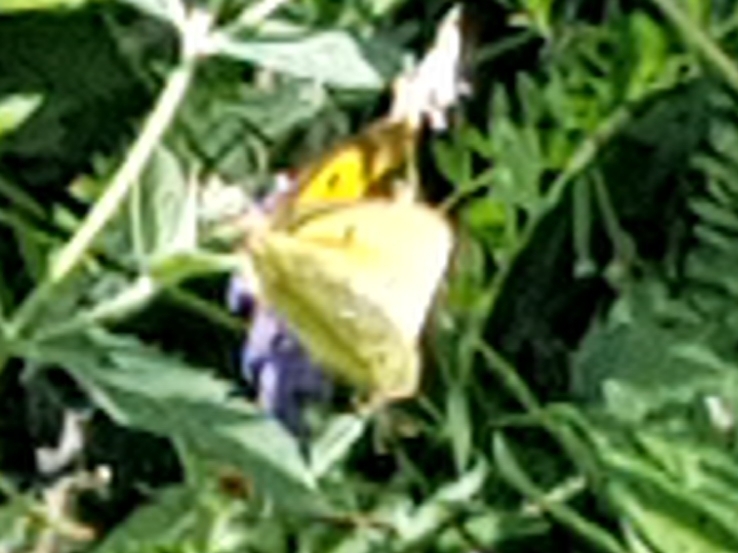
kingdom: Animalia
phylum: Arthropoda
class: Insecta
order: Lepidoptera
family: Pieridae
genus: Colias
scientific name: Colias croceus
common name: Clouded yellow
